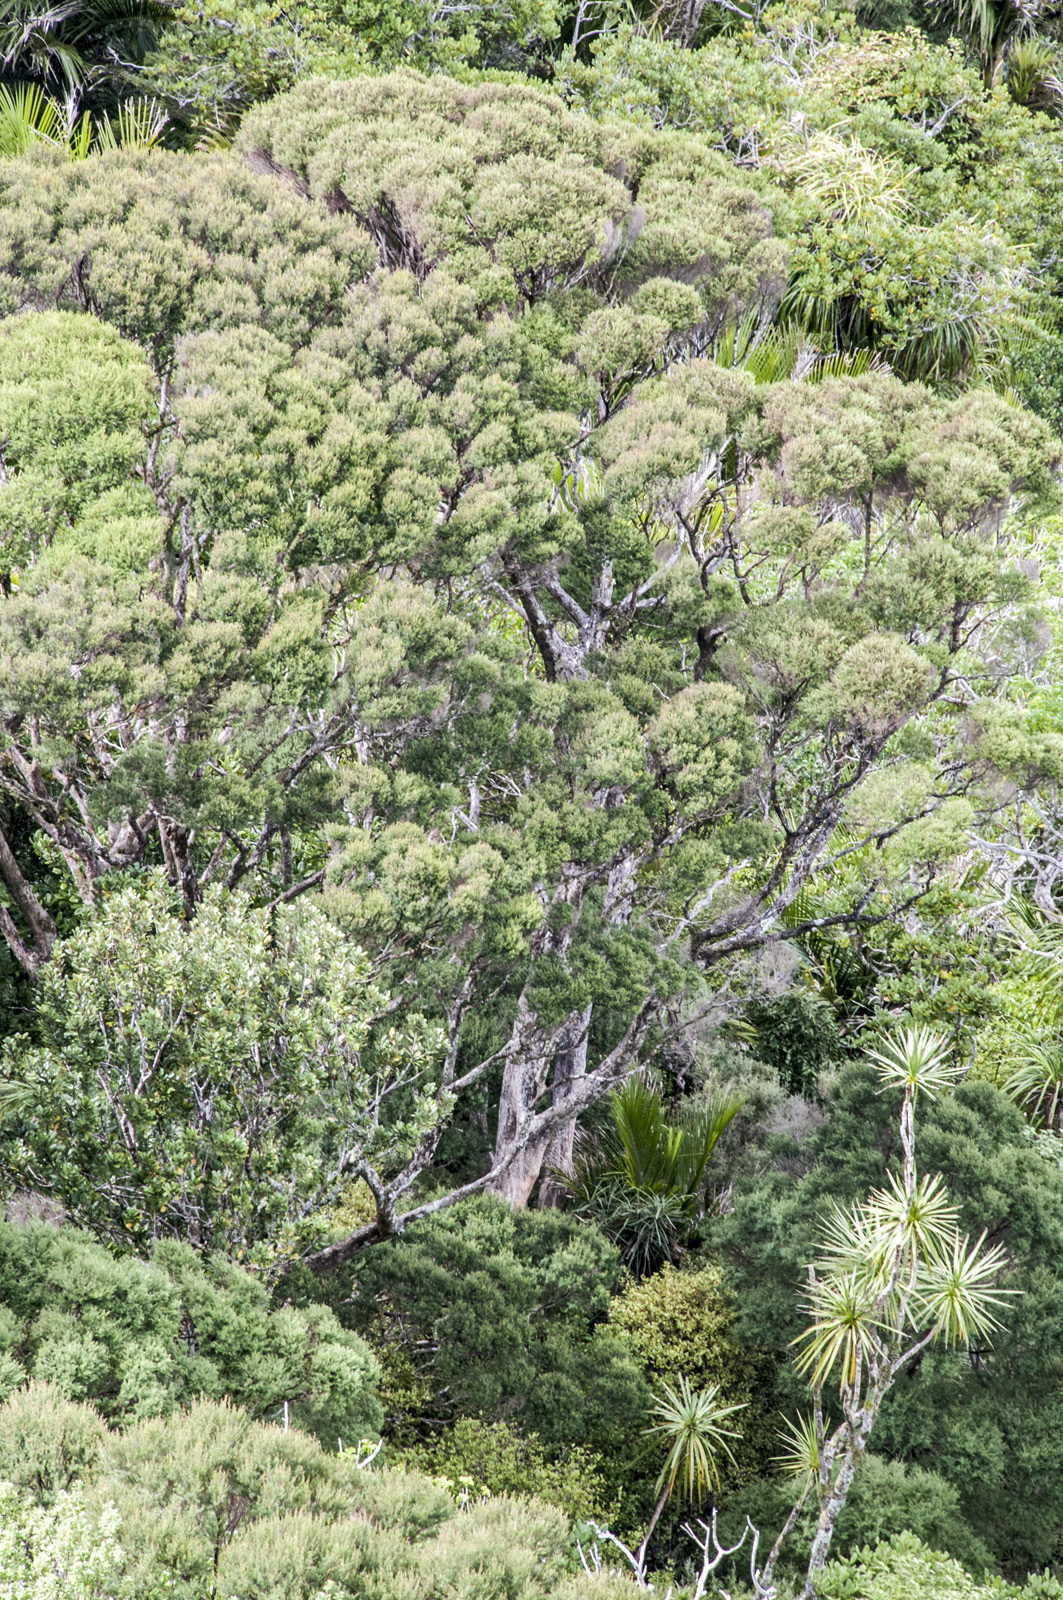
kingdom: Plantae
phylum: Tracheophyta
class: Magnoliopsida
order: Myrtales
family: Myrtaceae
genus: Kunzea
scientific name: Kunzea linearis
